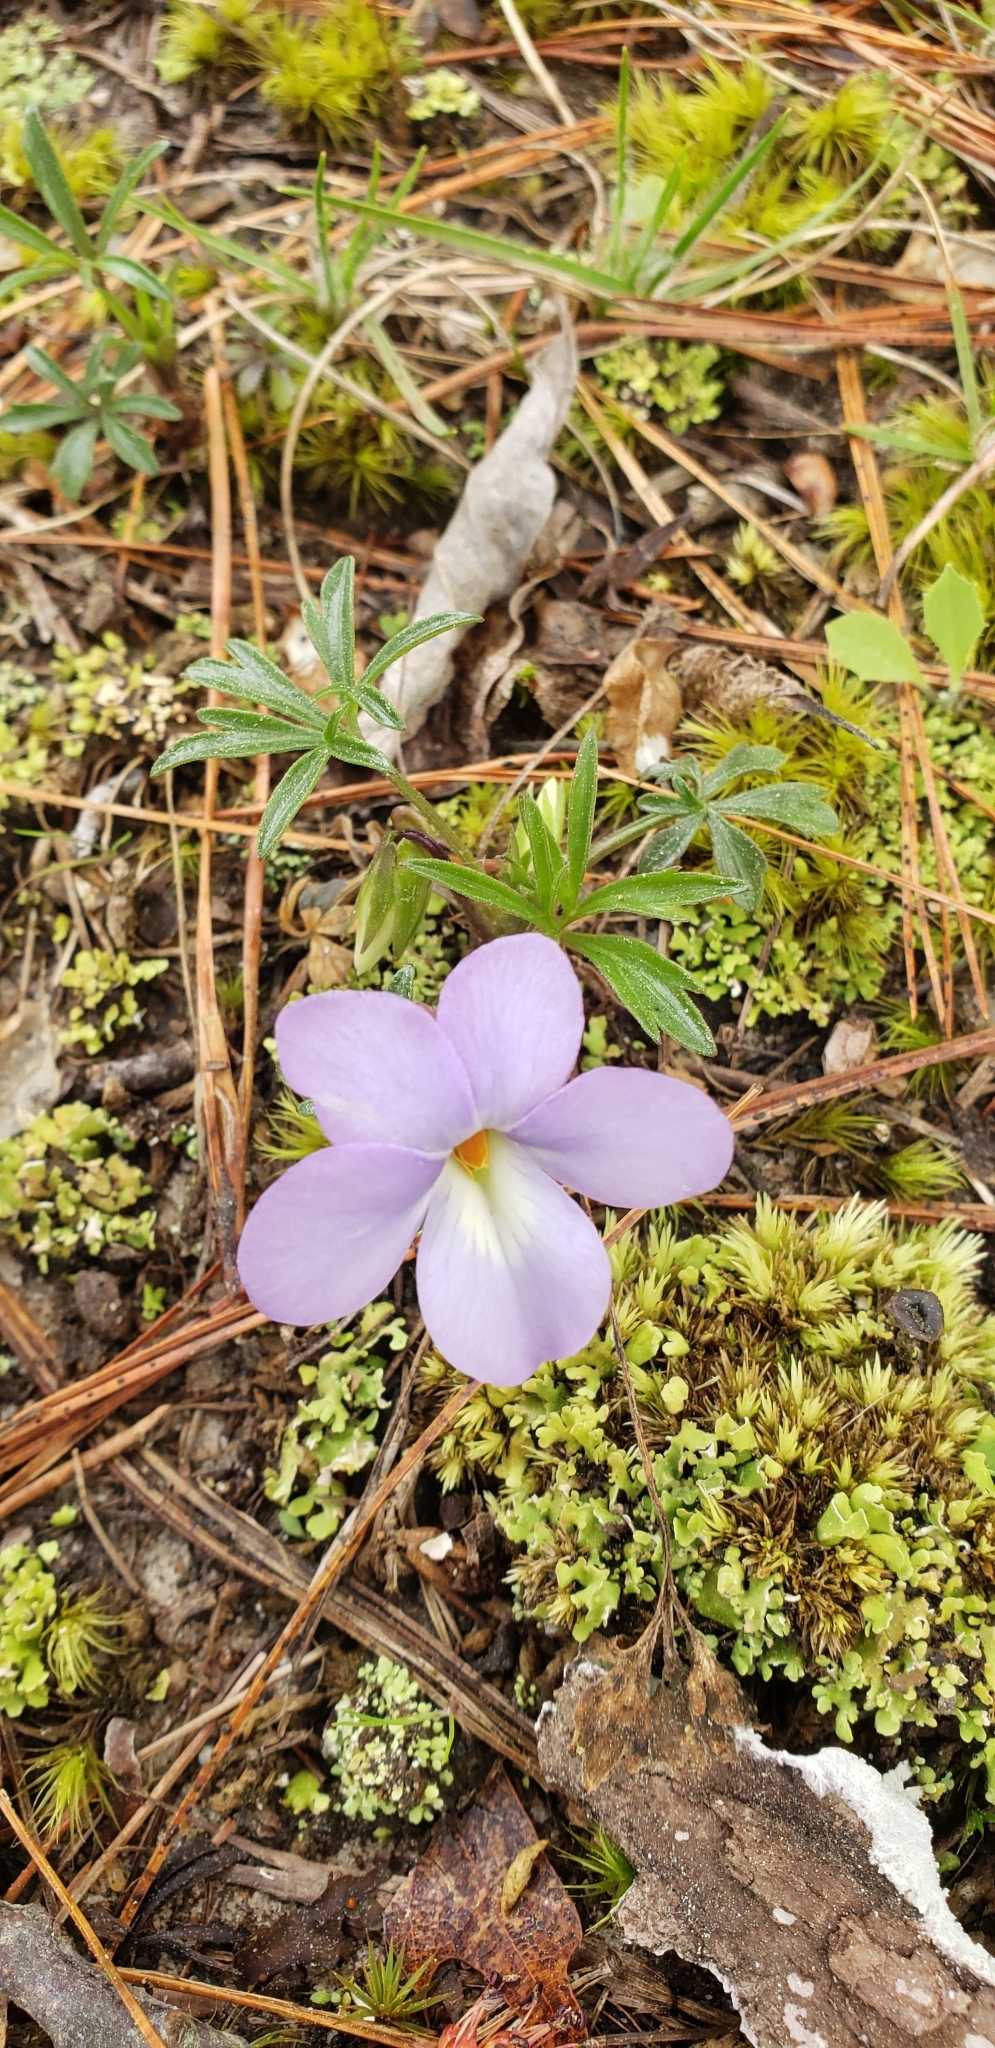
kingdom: Plantae
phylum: Tracheophyta
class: Magnoliopsida
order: Malpighiales
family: Violaceae
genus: Viola
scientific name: Viola pedata
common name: Pansy violet
